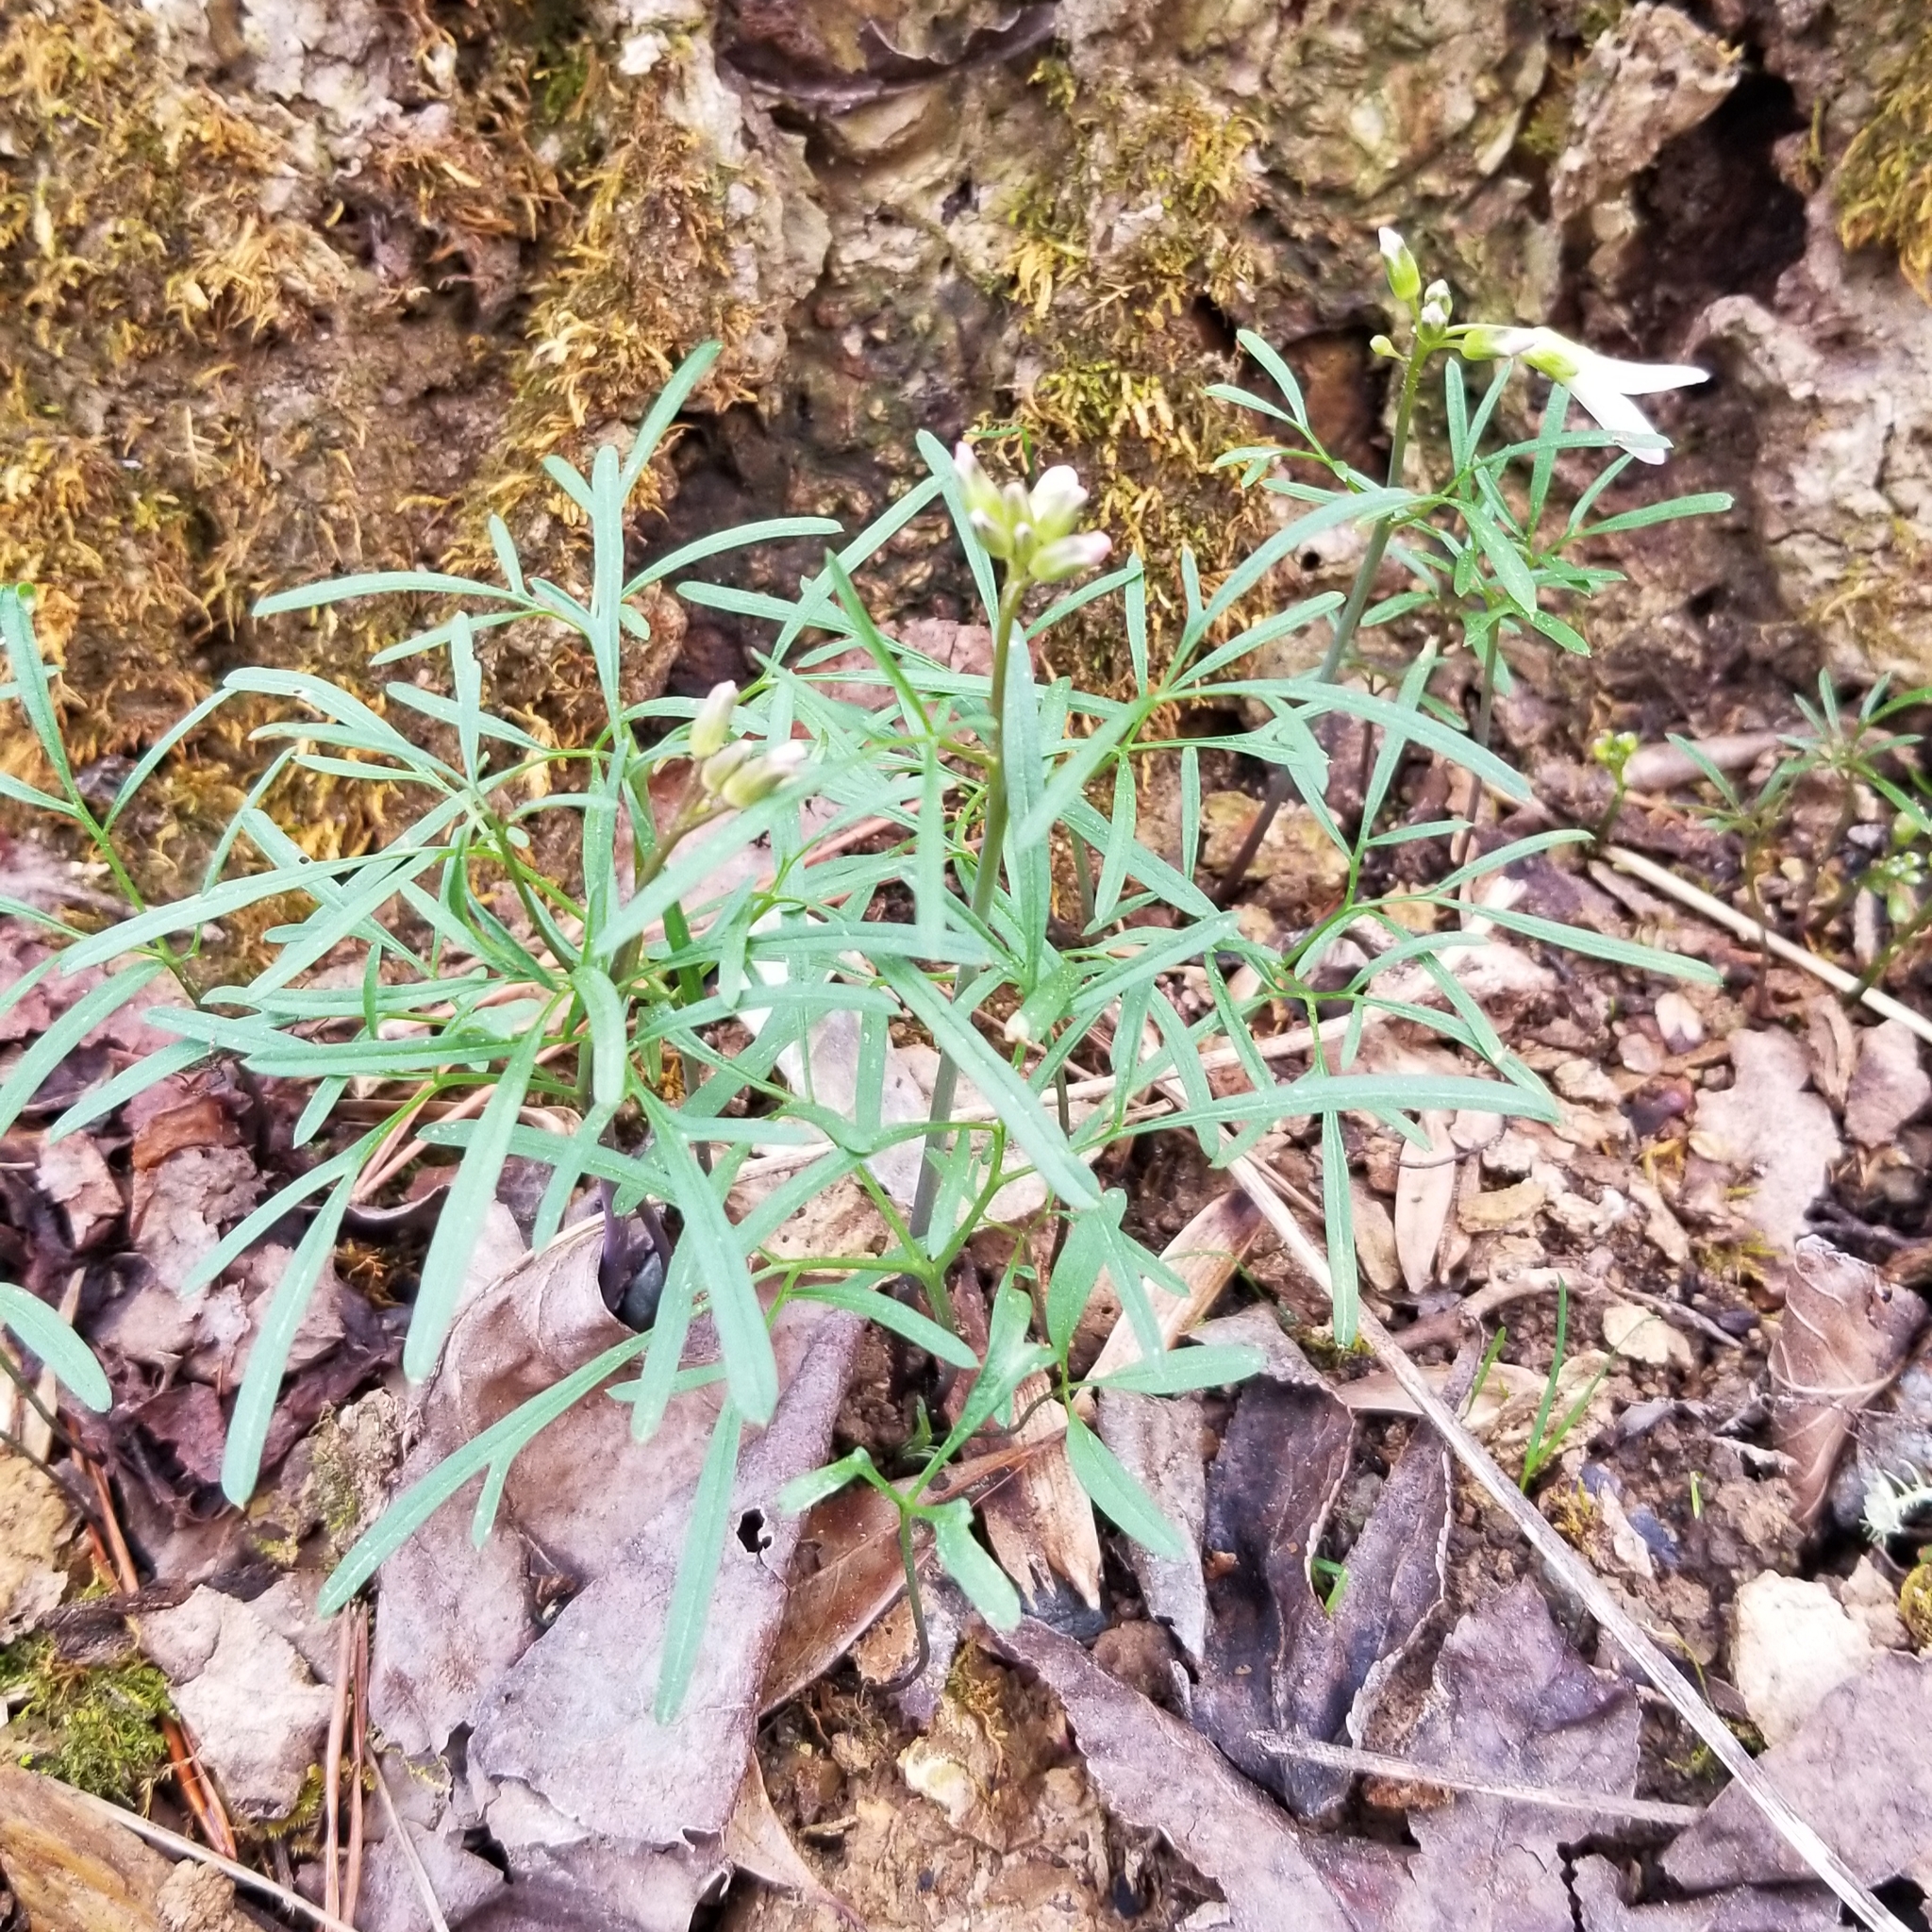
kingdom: Plantae
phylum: Tracheophyta
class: Magnoliopsida
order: Brassicales
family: Brassicaceae
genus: Cardamine
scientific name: Cardamine dissecta
